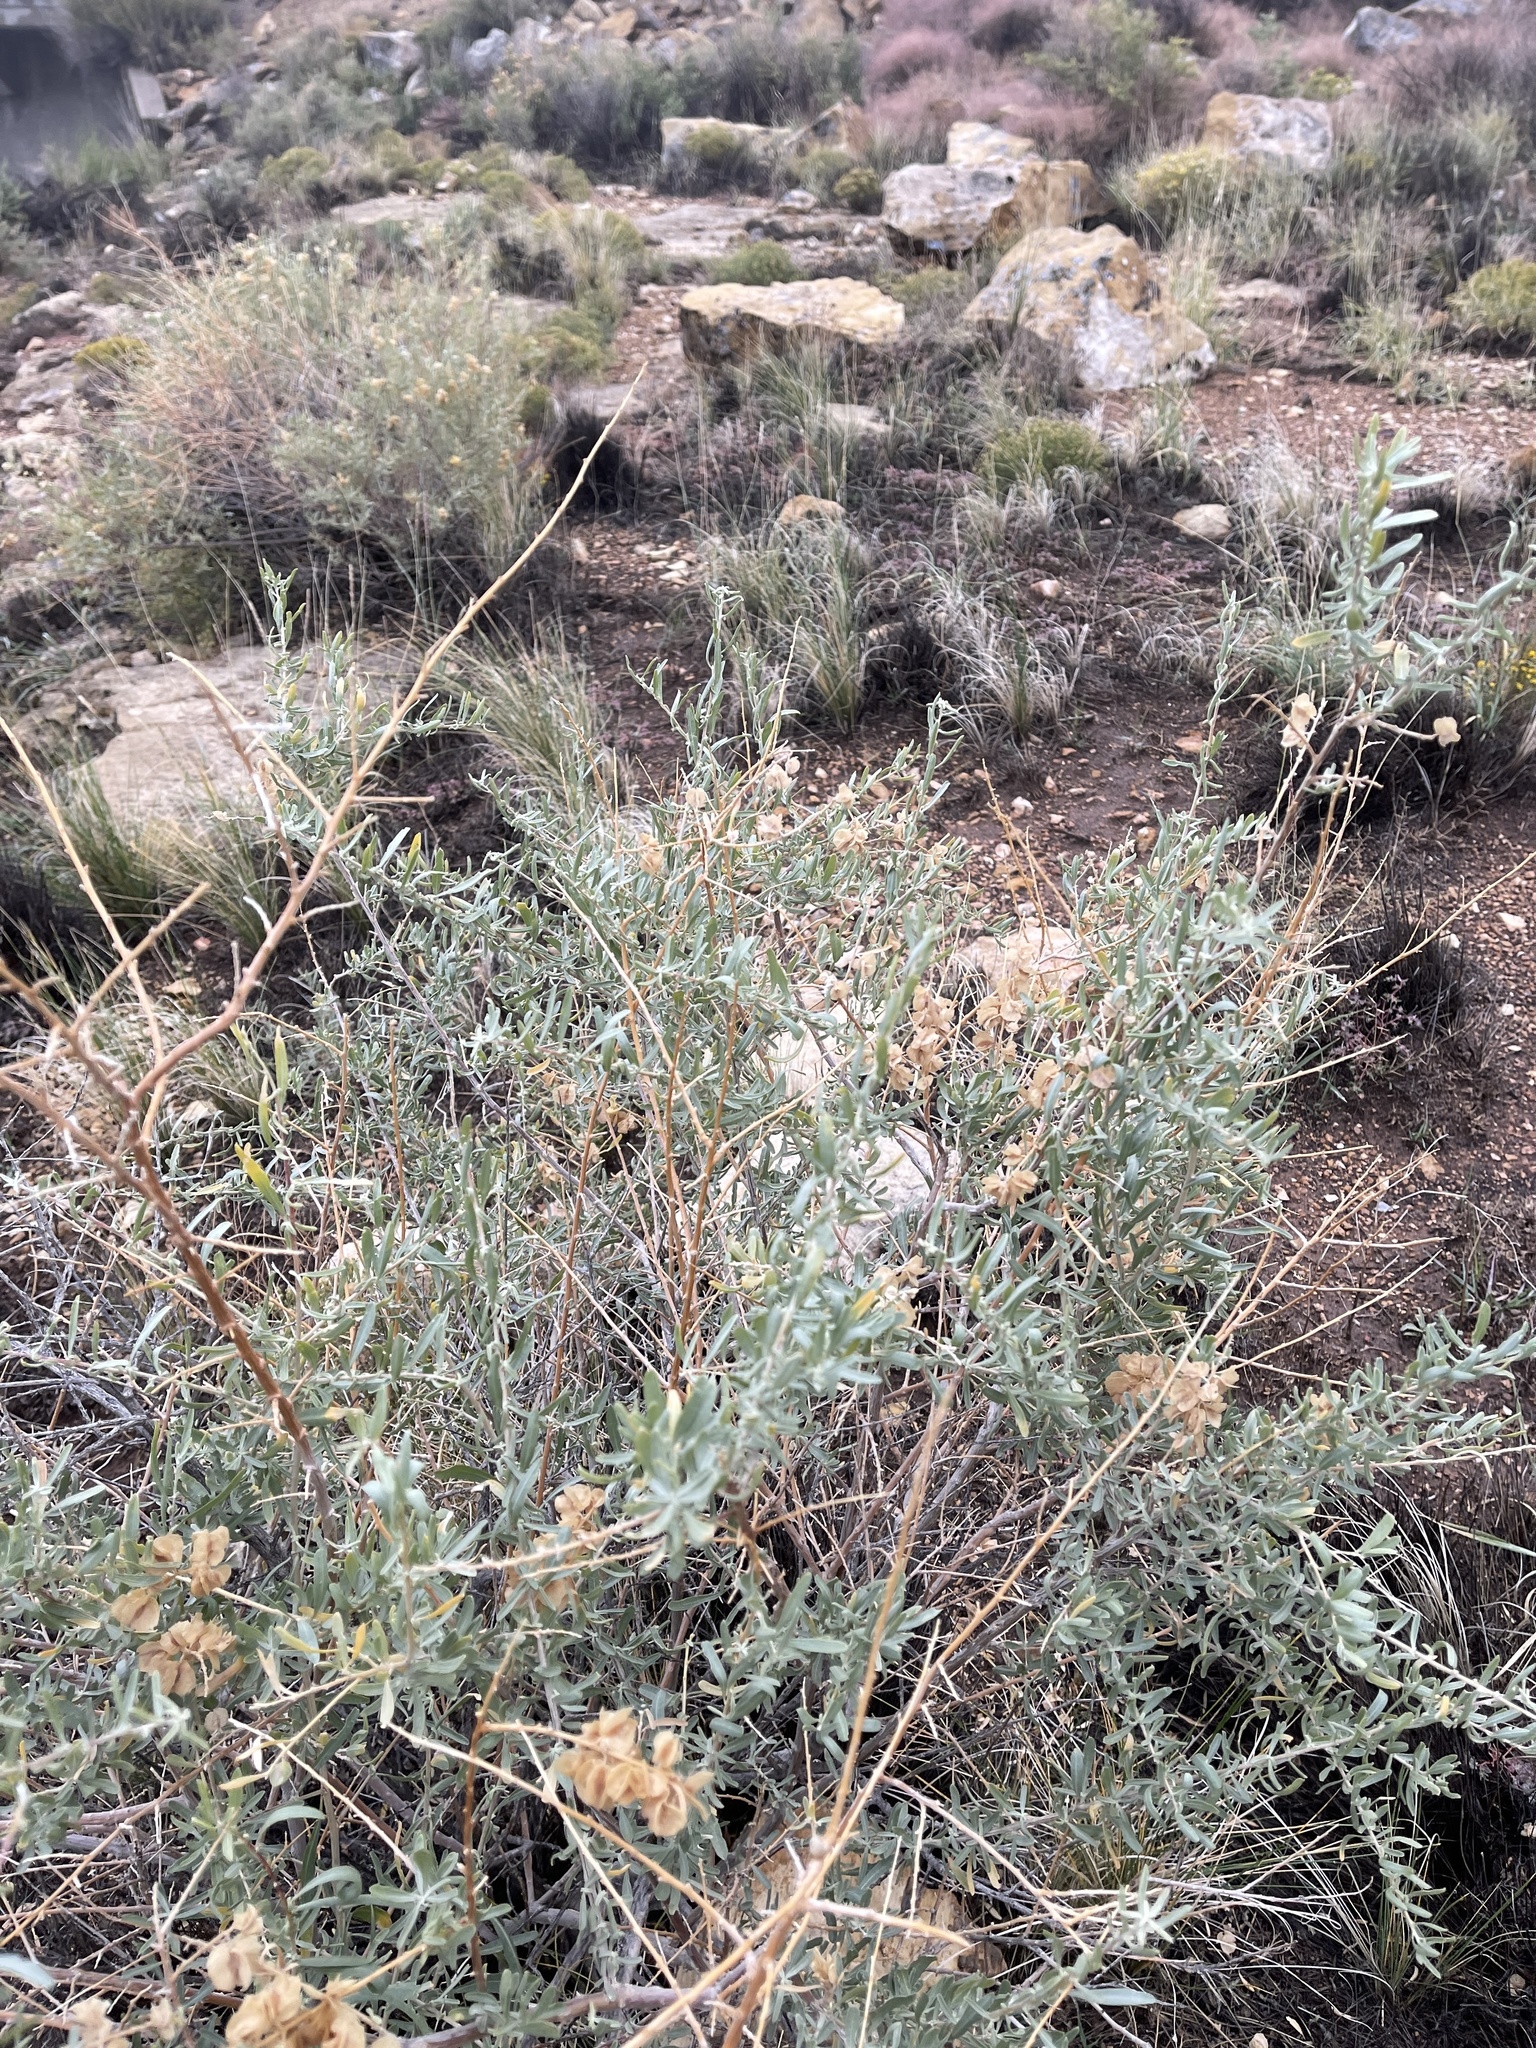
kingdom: Plantae
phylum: Tracheophyta
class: Magnoliopsida
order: Caryophyllales
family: Amaranthaceae
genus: Atriplex
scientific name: Atriplex canescens
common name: Four-wing saltbush
